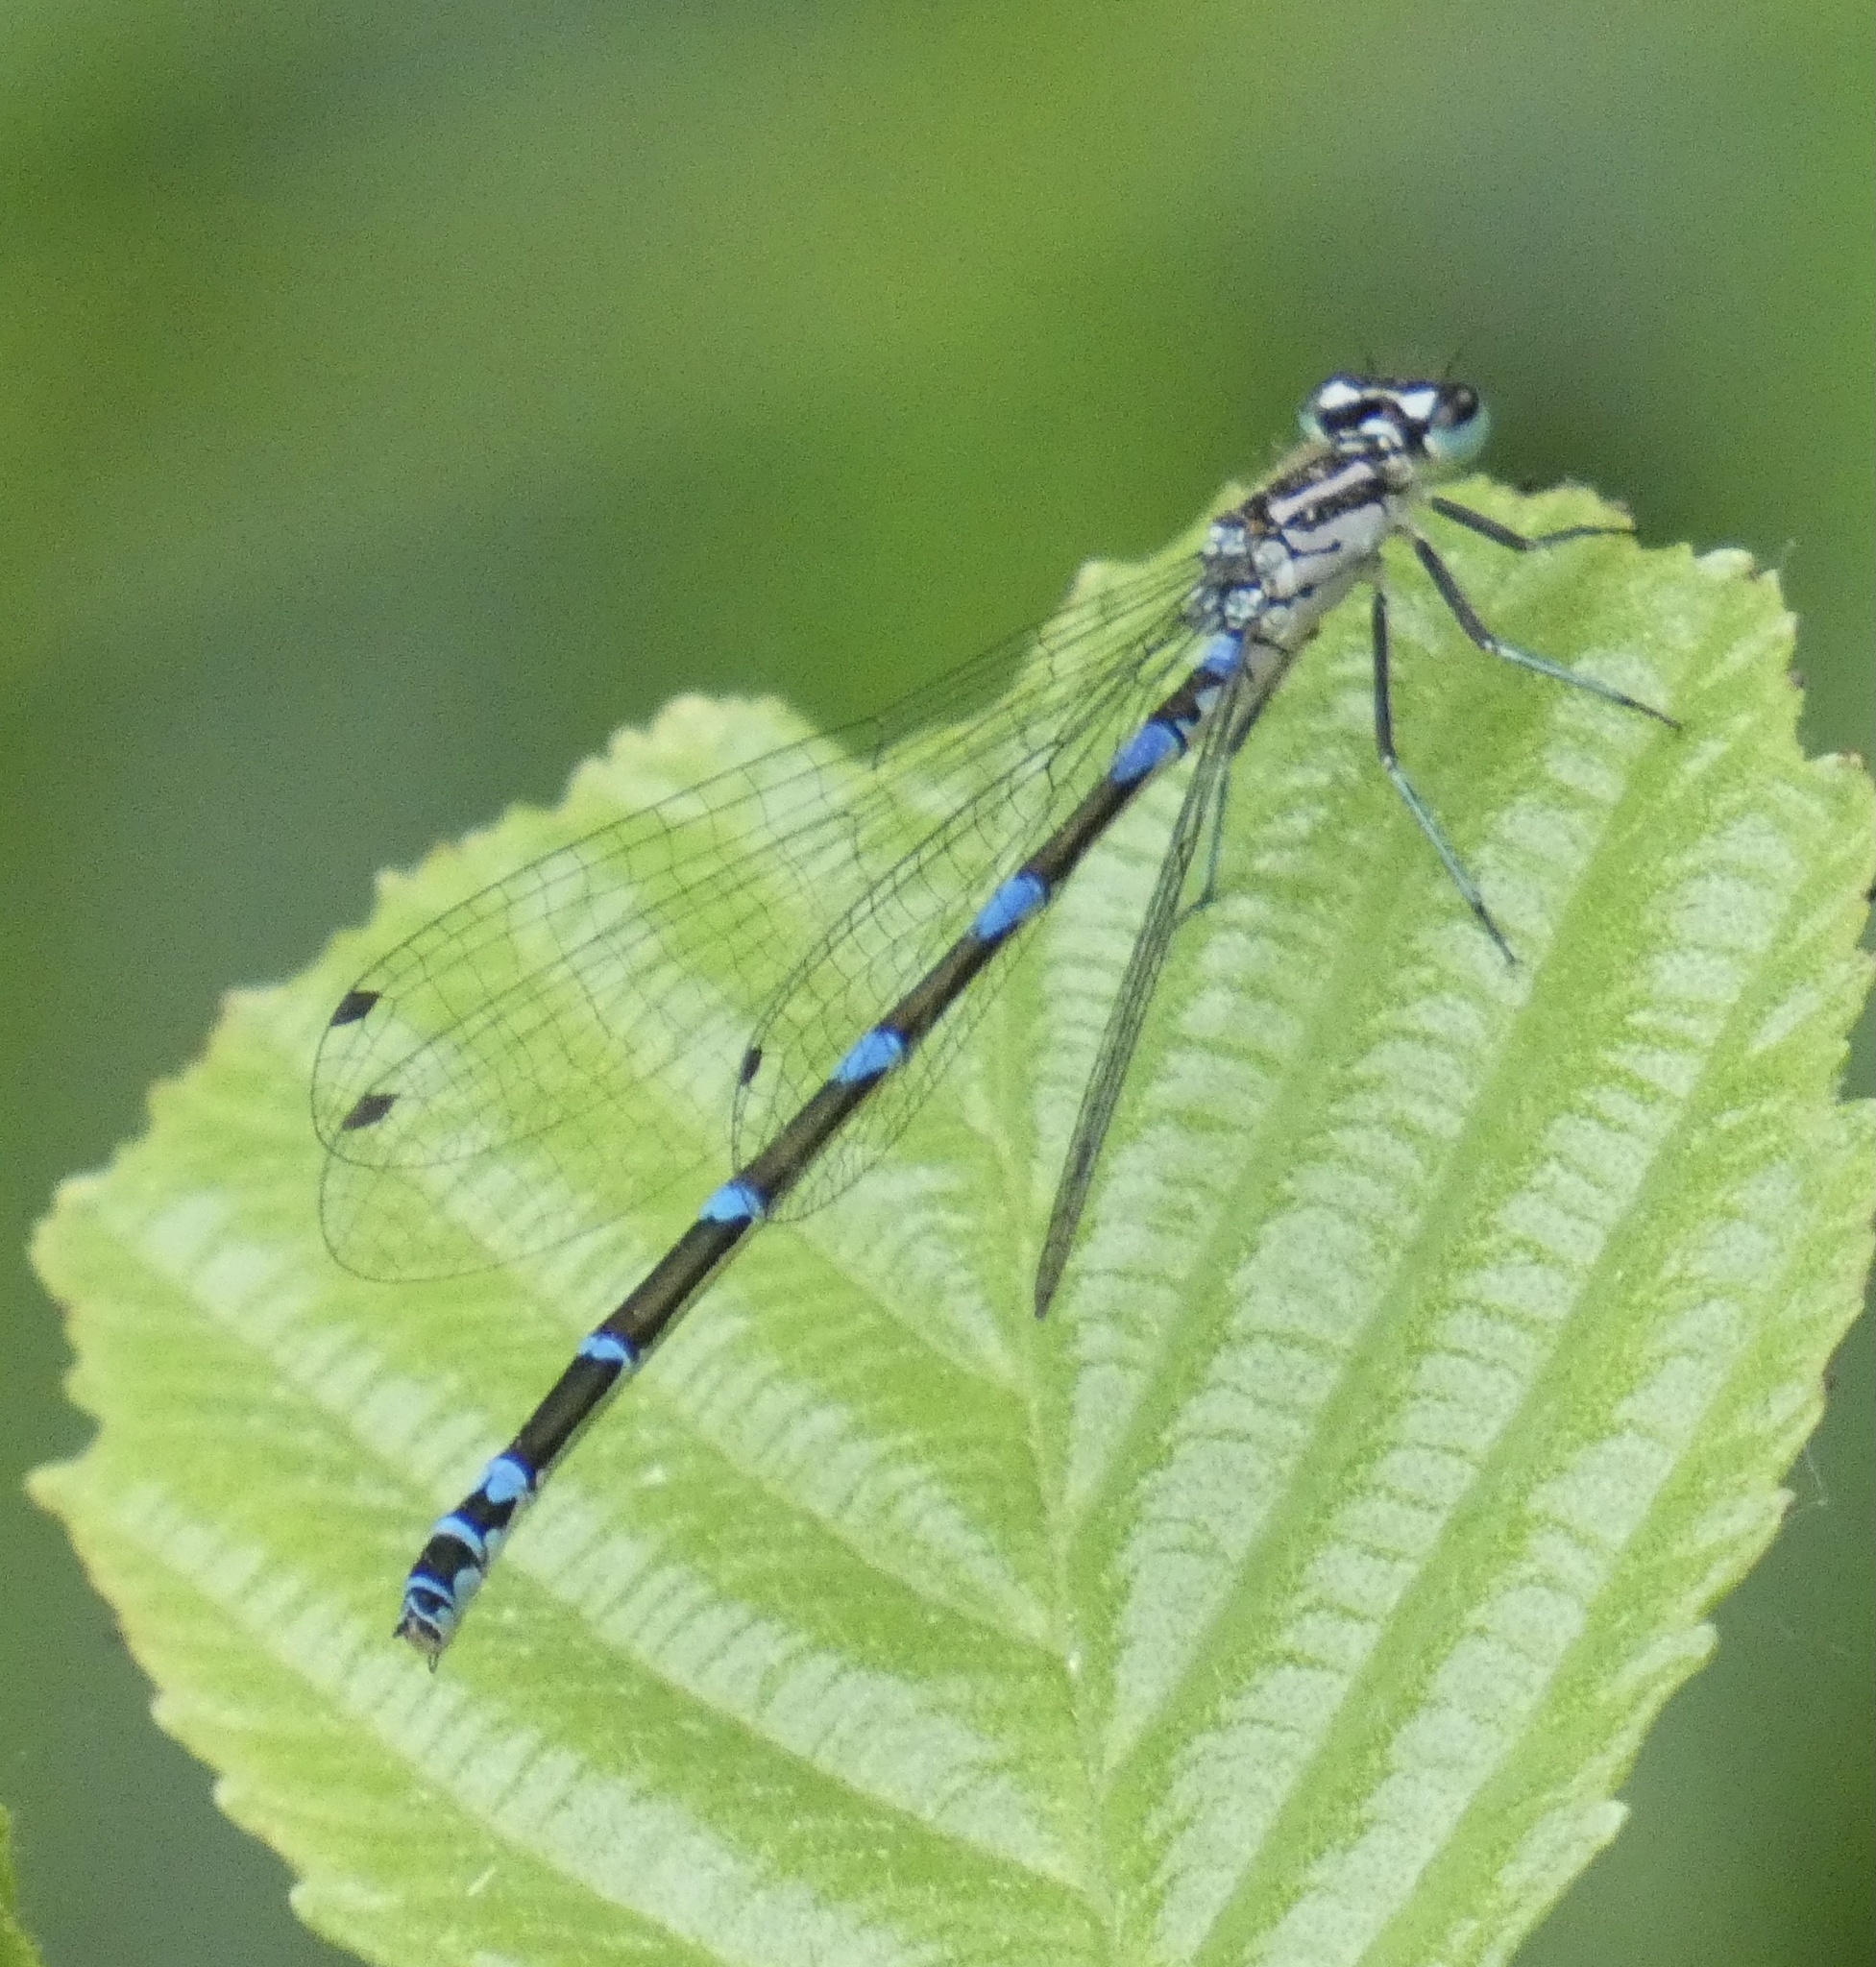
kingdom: Animalia
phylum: Arthropoda
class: Insecta
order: Odonata
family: Coenagrionidae
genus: Coenagrion
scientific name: Coenagrion pulchellum
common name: Variable bluet
